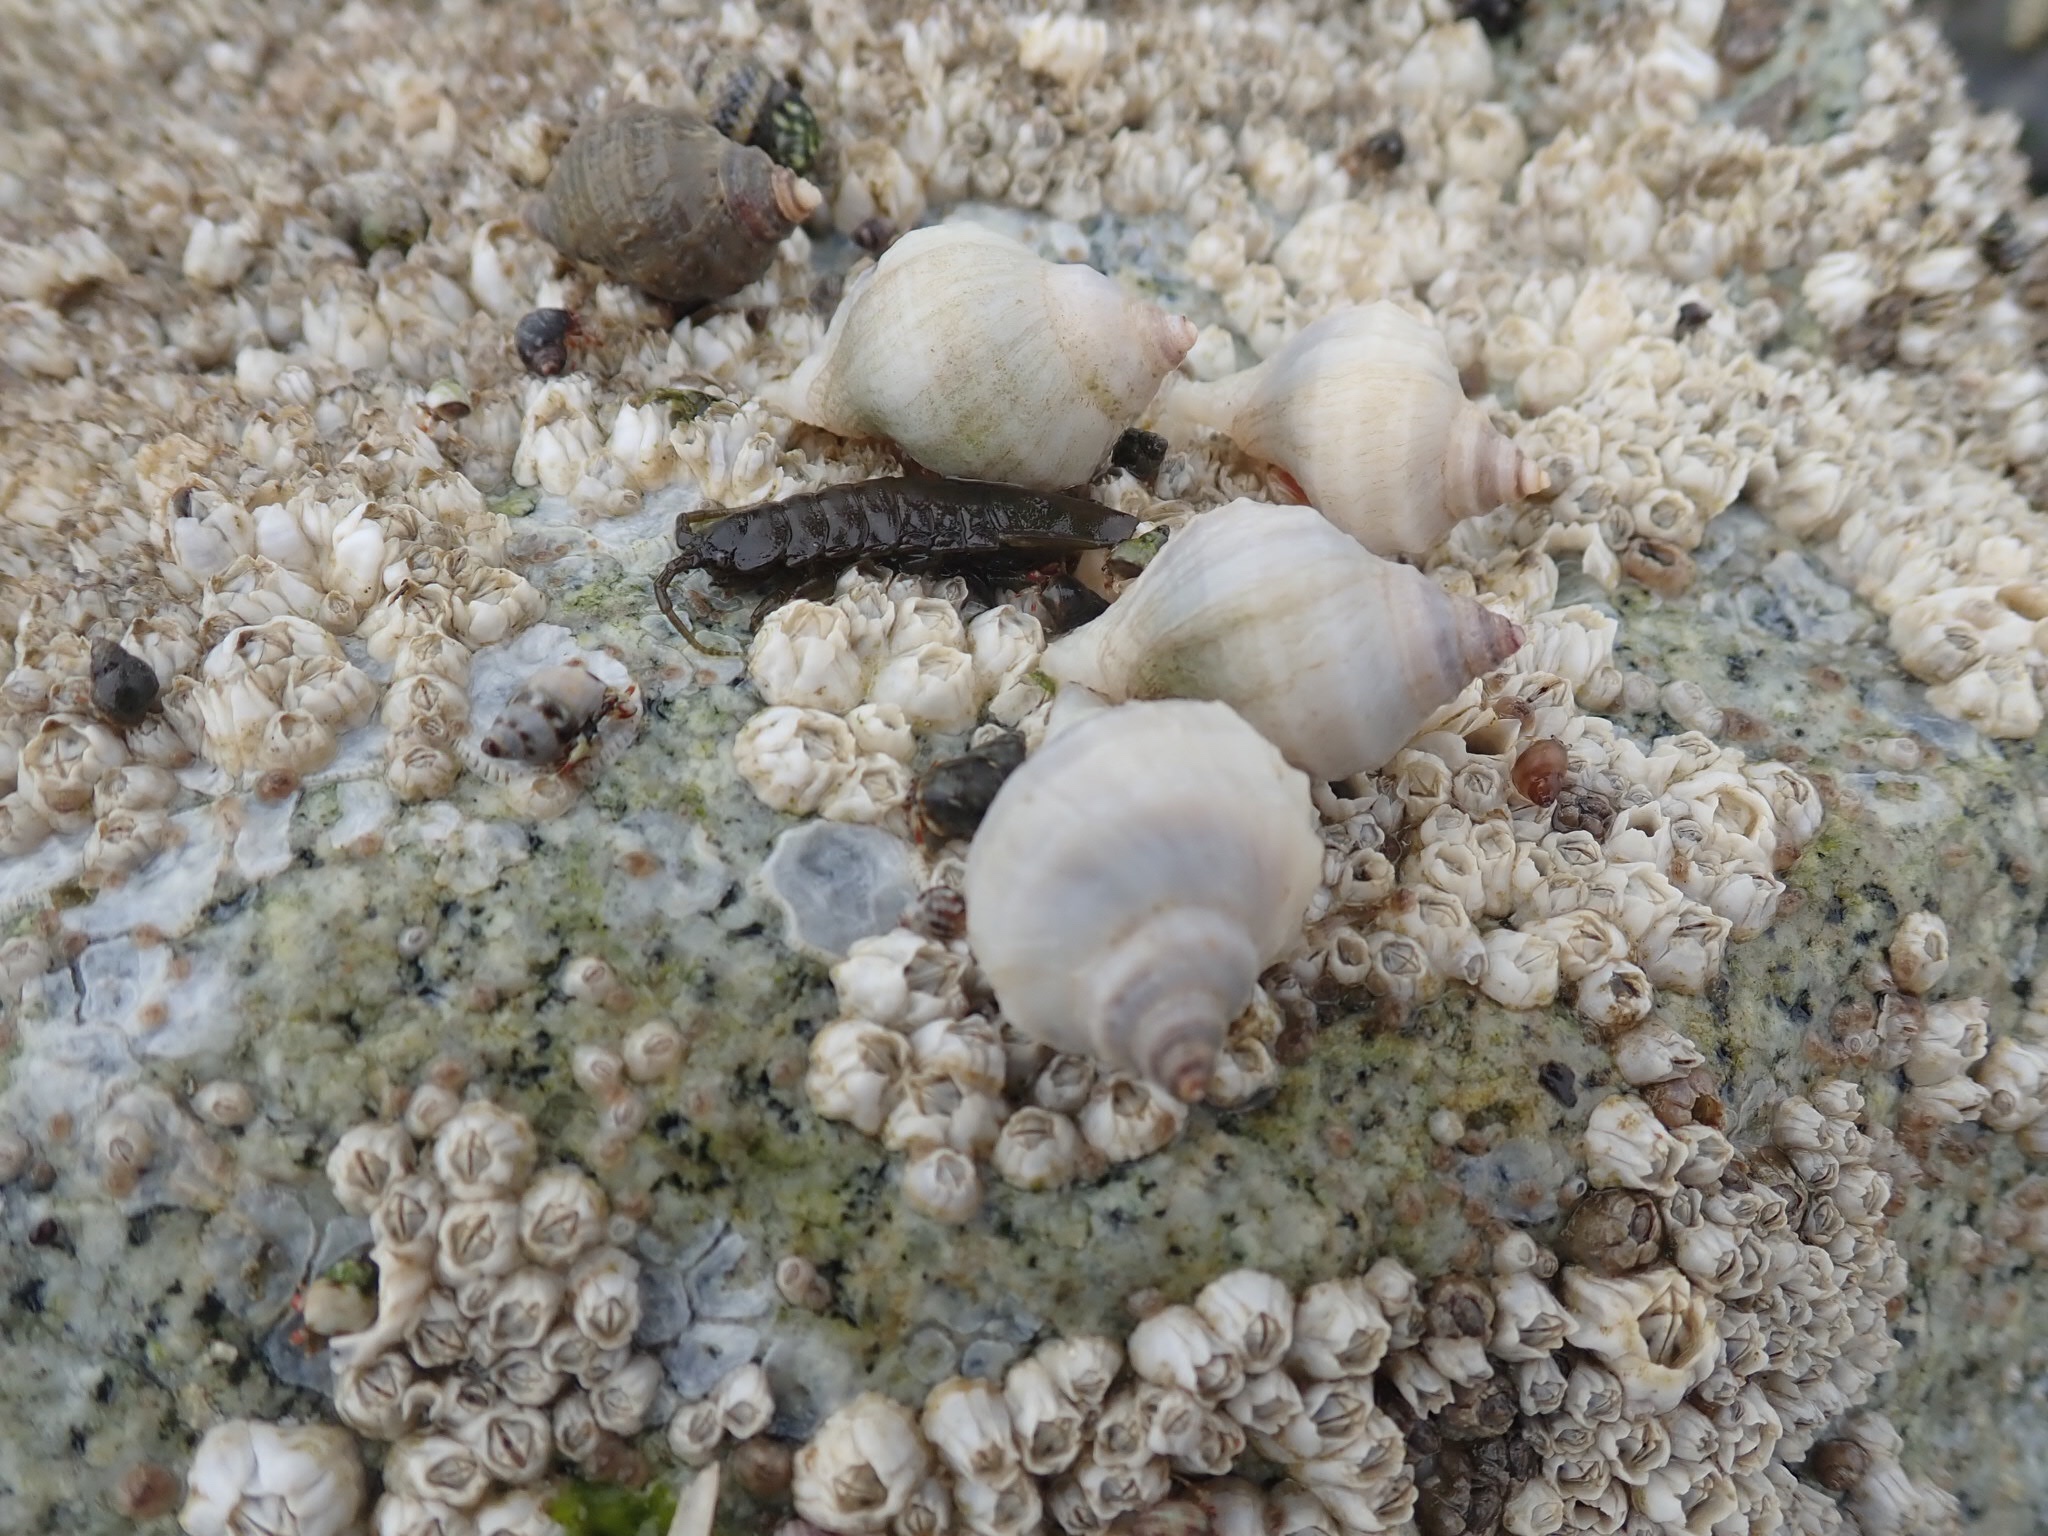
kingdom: Animalia
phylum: Mollusca
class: Gastropoda
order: Neogastropoda
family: Muricidae
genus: Nucella
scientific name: Nucella lamellosa
